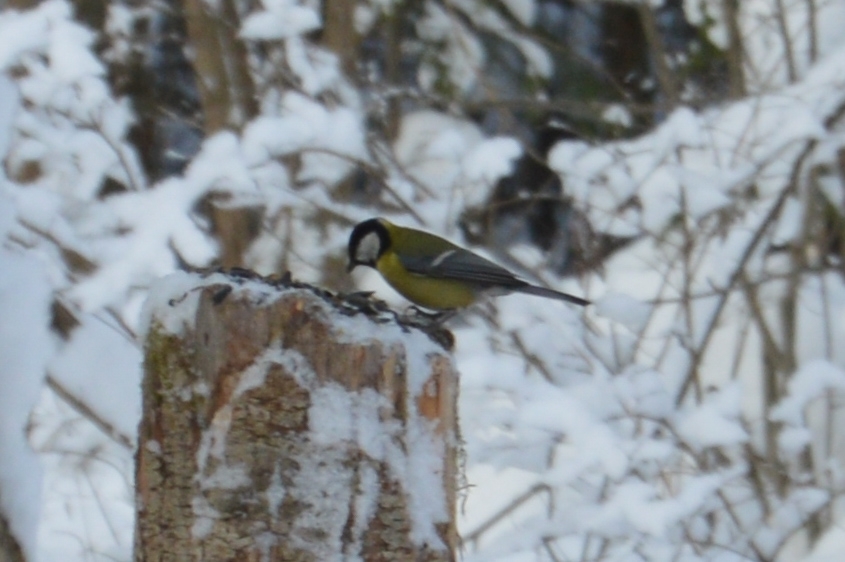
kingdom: Animalia
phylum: Chordata
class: Aves
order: Passeriformes
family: Paridae
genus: Parus
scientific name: Parus major
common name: Great tit
